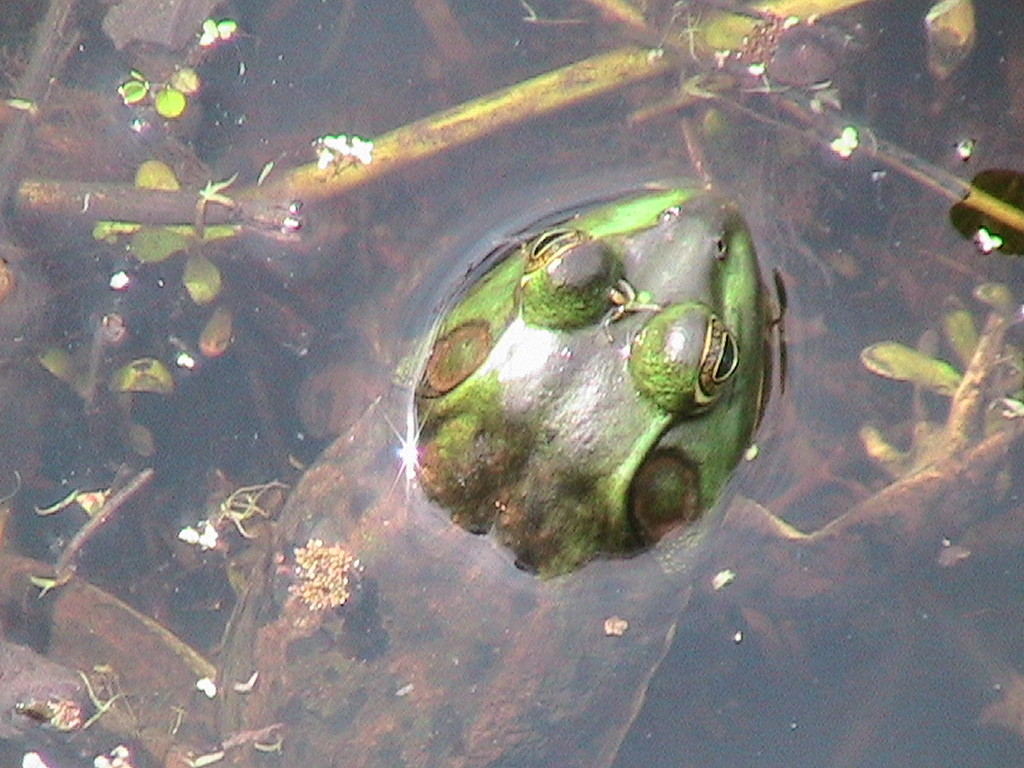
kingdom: Animalia
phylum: Chordata
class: Amphibia
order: Anura
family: Ranidae
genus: Lithobates
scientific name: Lithobates grylio
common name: Pig frog
